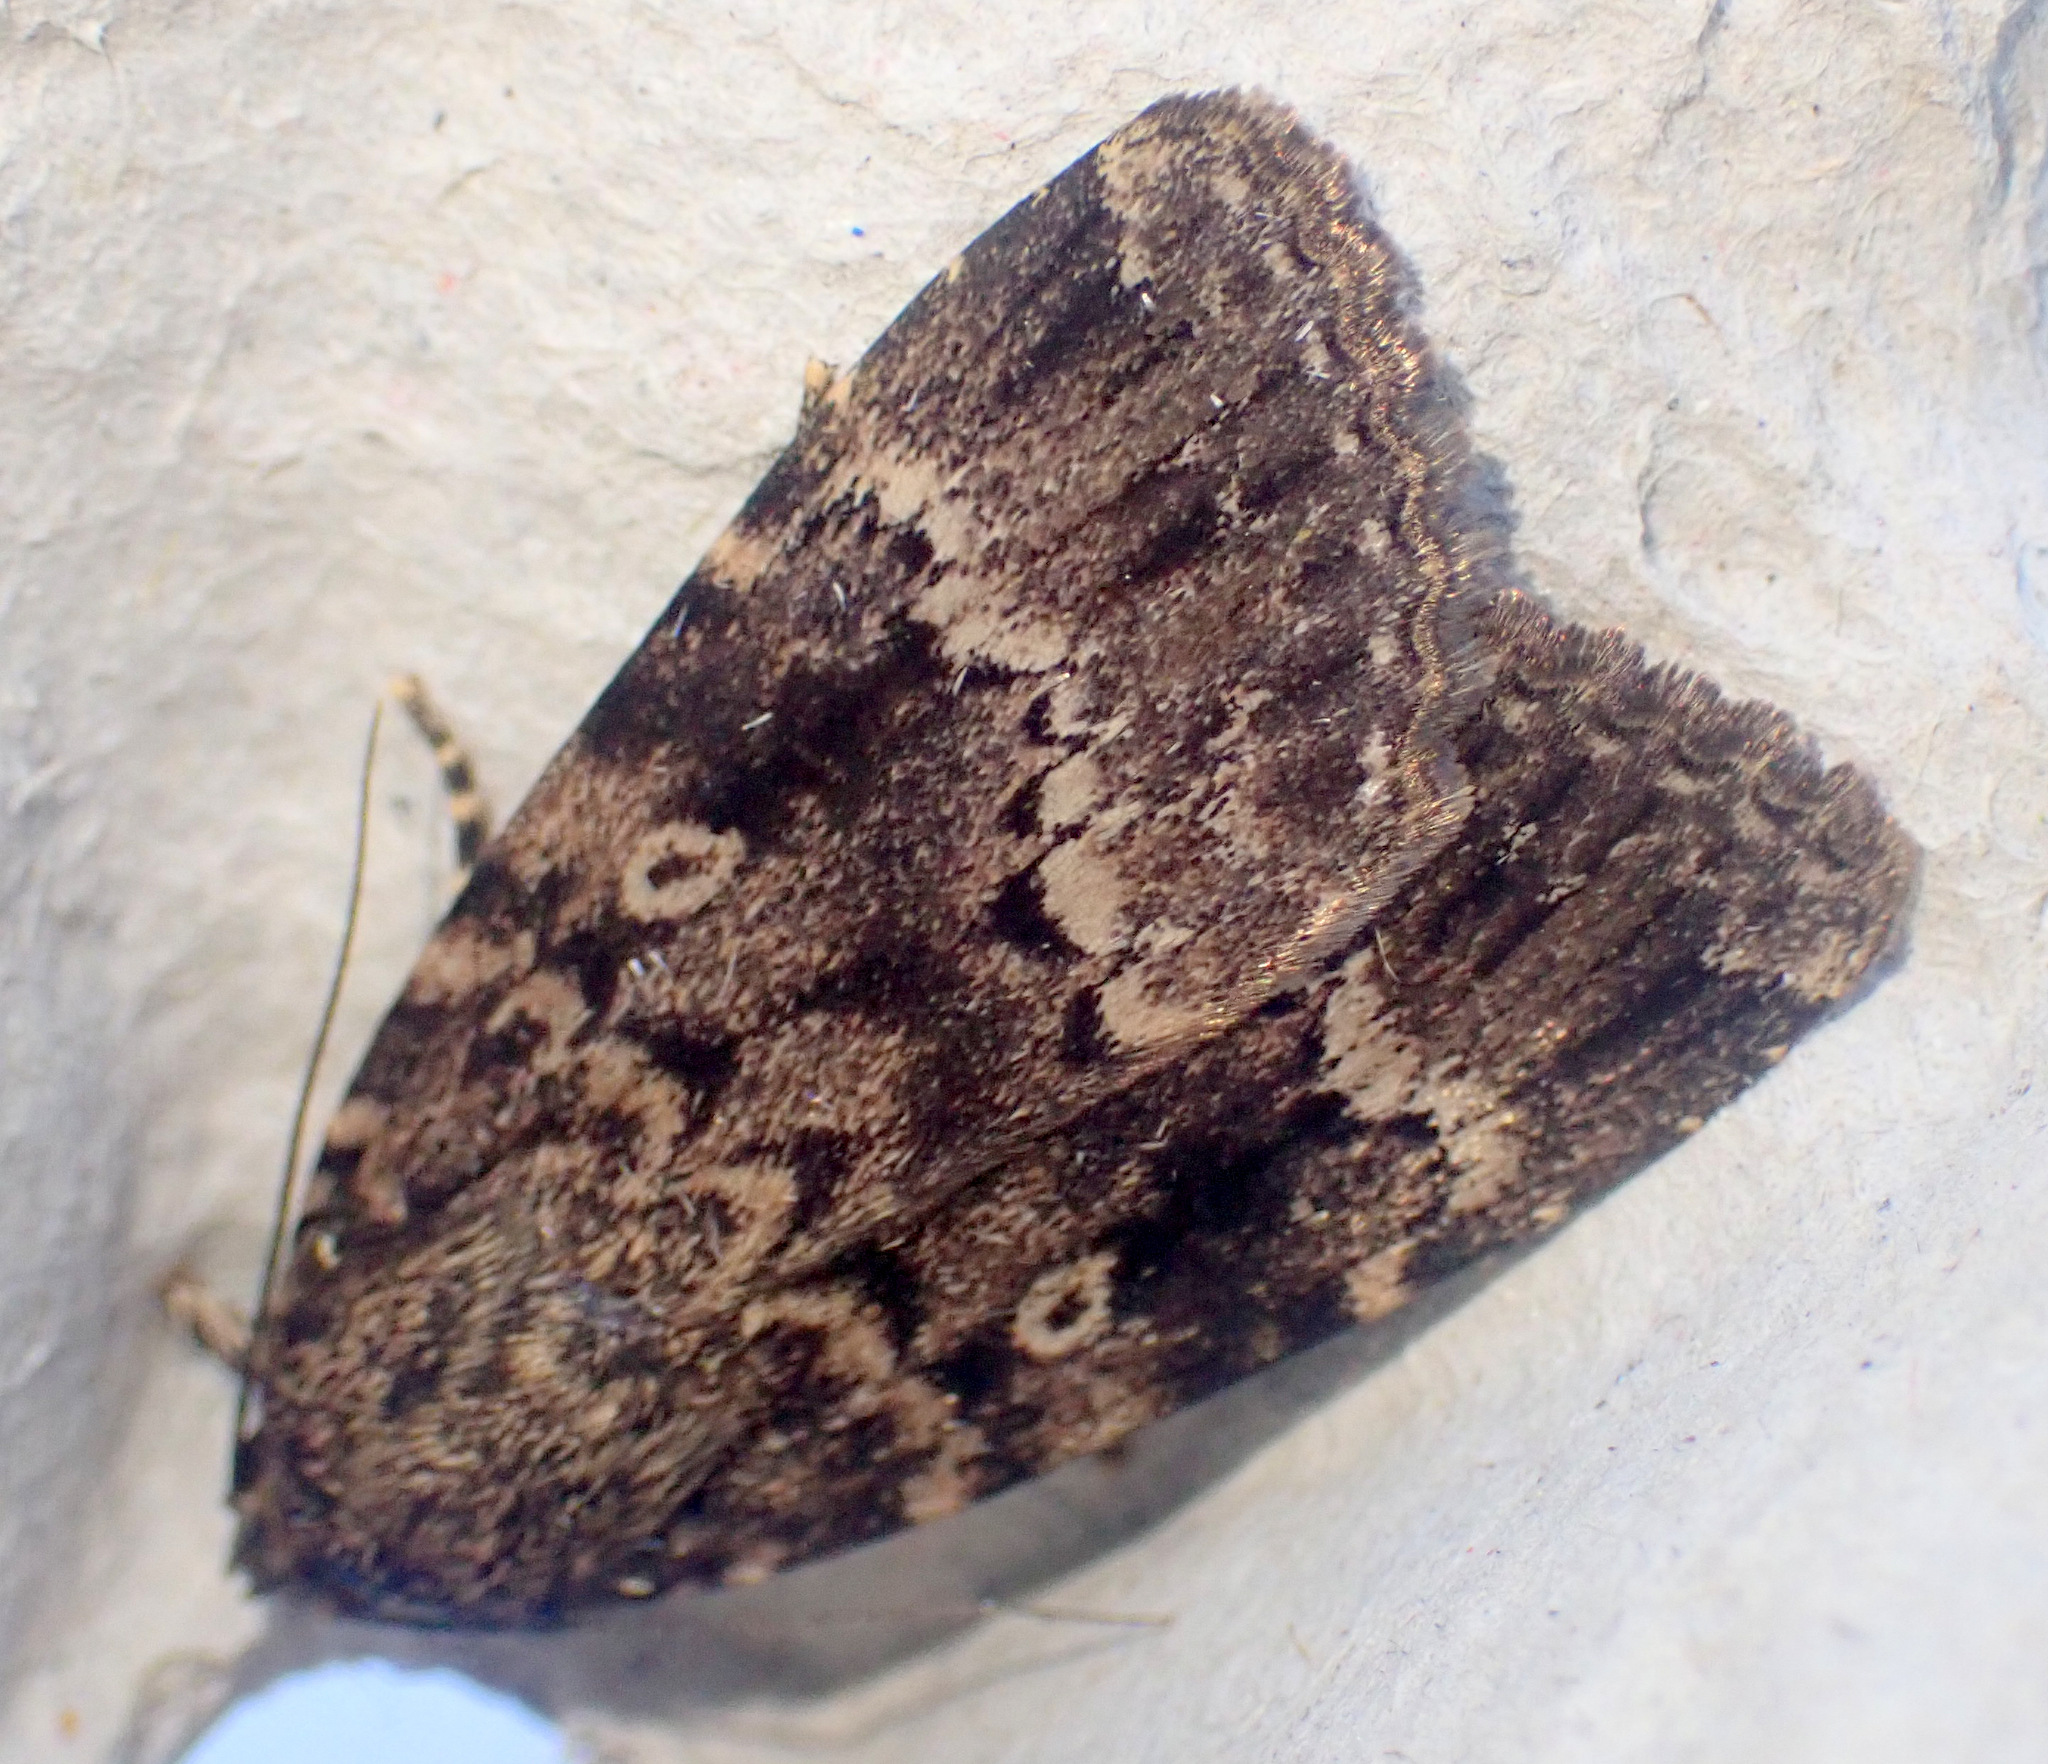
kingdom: Animalia
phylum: Arthropoda
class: Insecta
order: Lepidoptera
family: Noctuidae
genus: Amphipyra
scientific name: Amphipyra berbera
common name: Svensson's copper underwing
